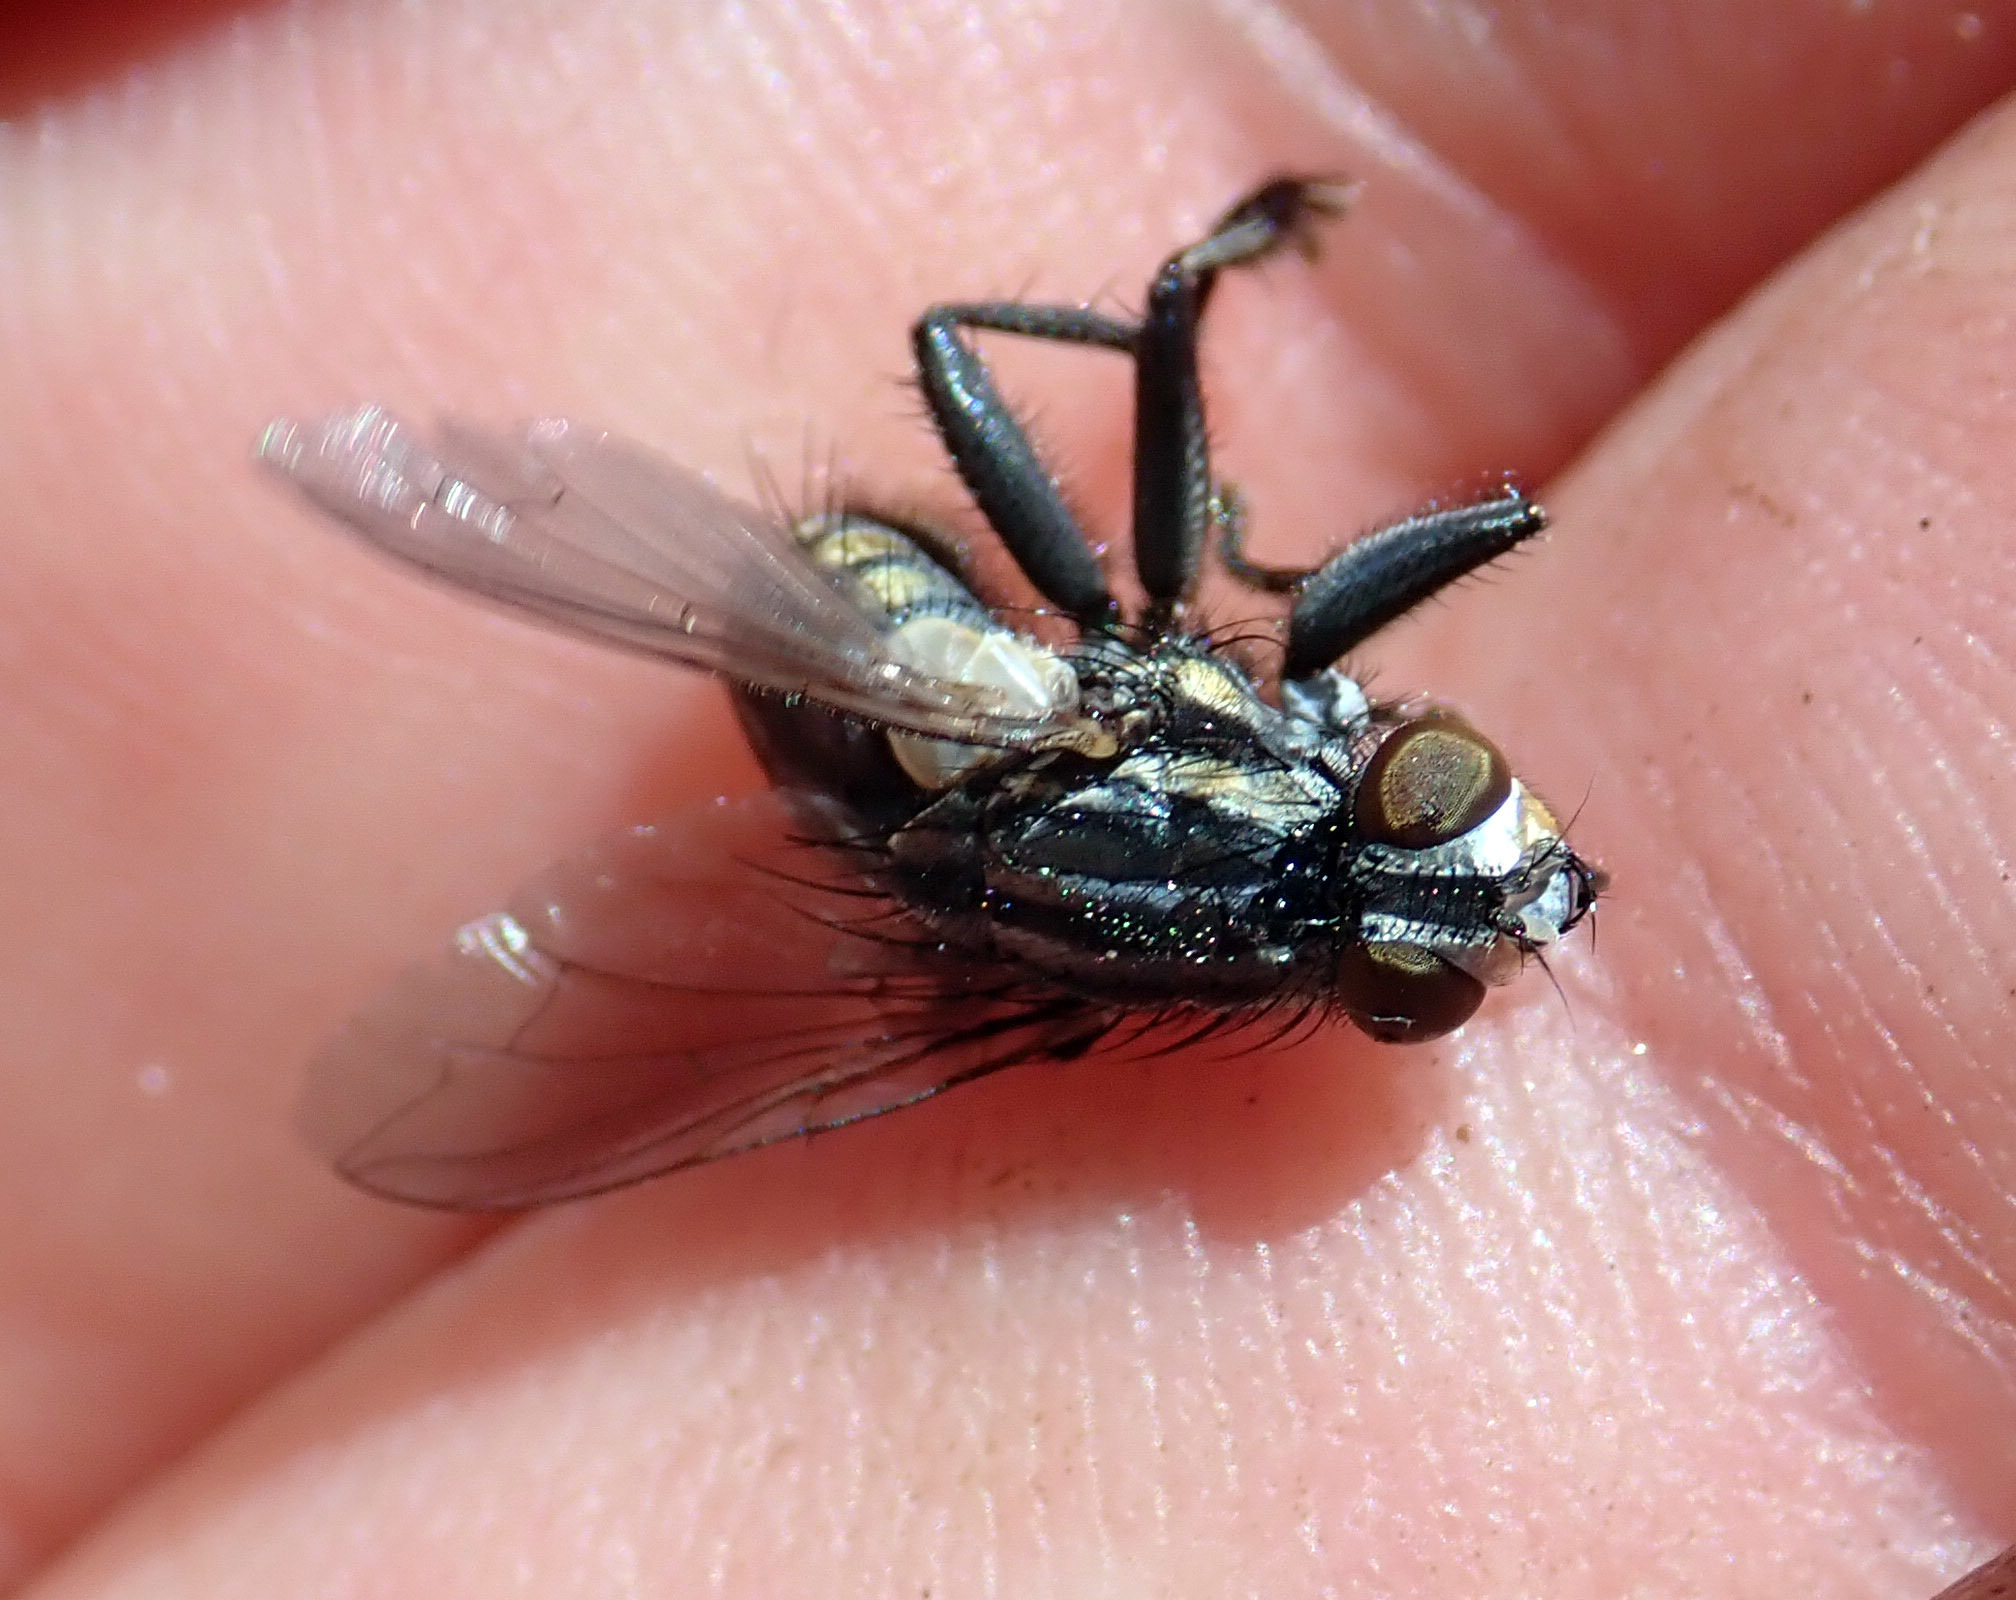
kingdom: Animalia
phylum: Arthropoda
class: Insecta
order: Diptera
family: Sarcophagidae
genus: Oxysarcodexia
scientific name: Oxysarcodexia varia
